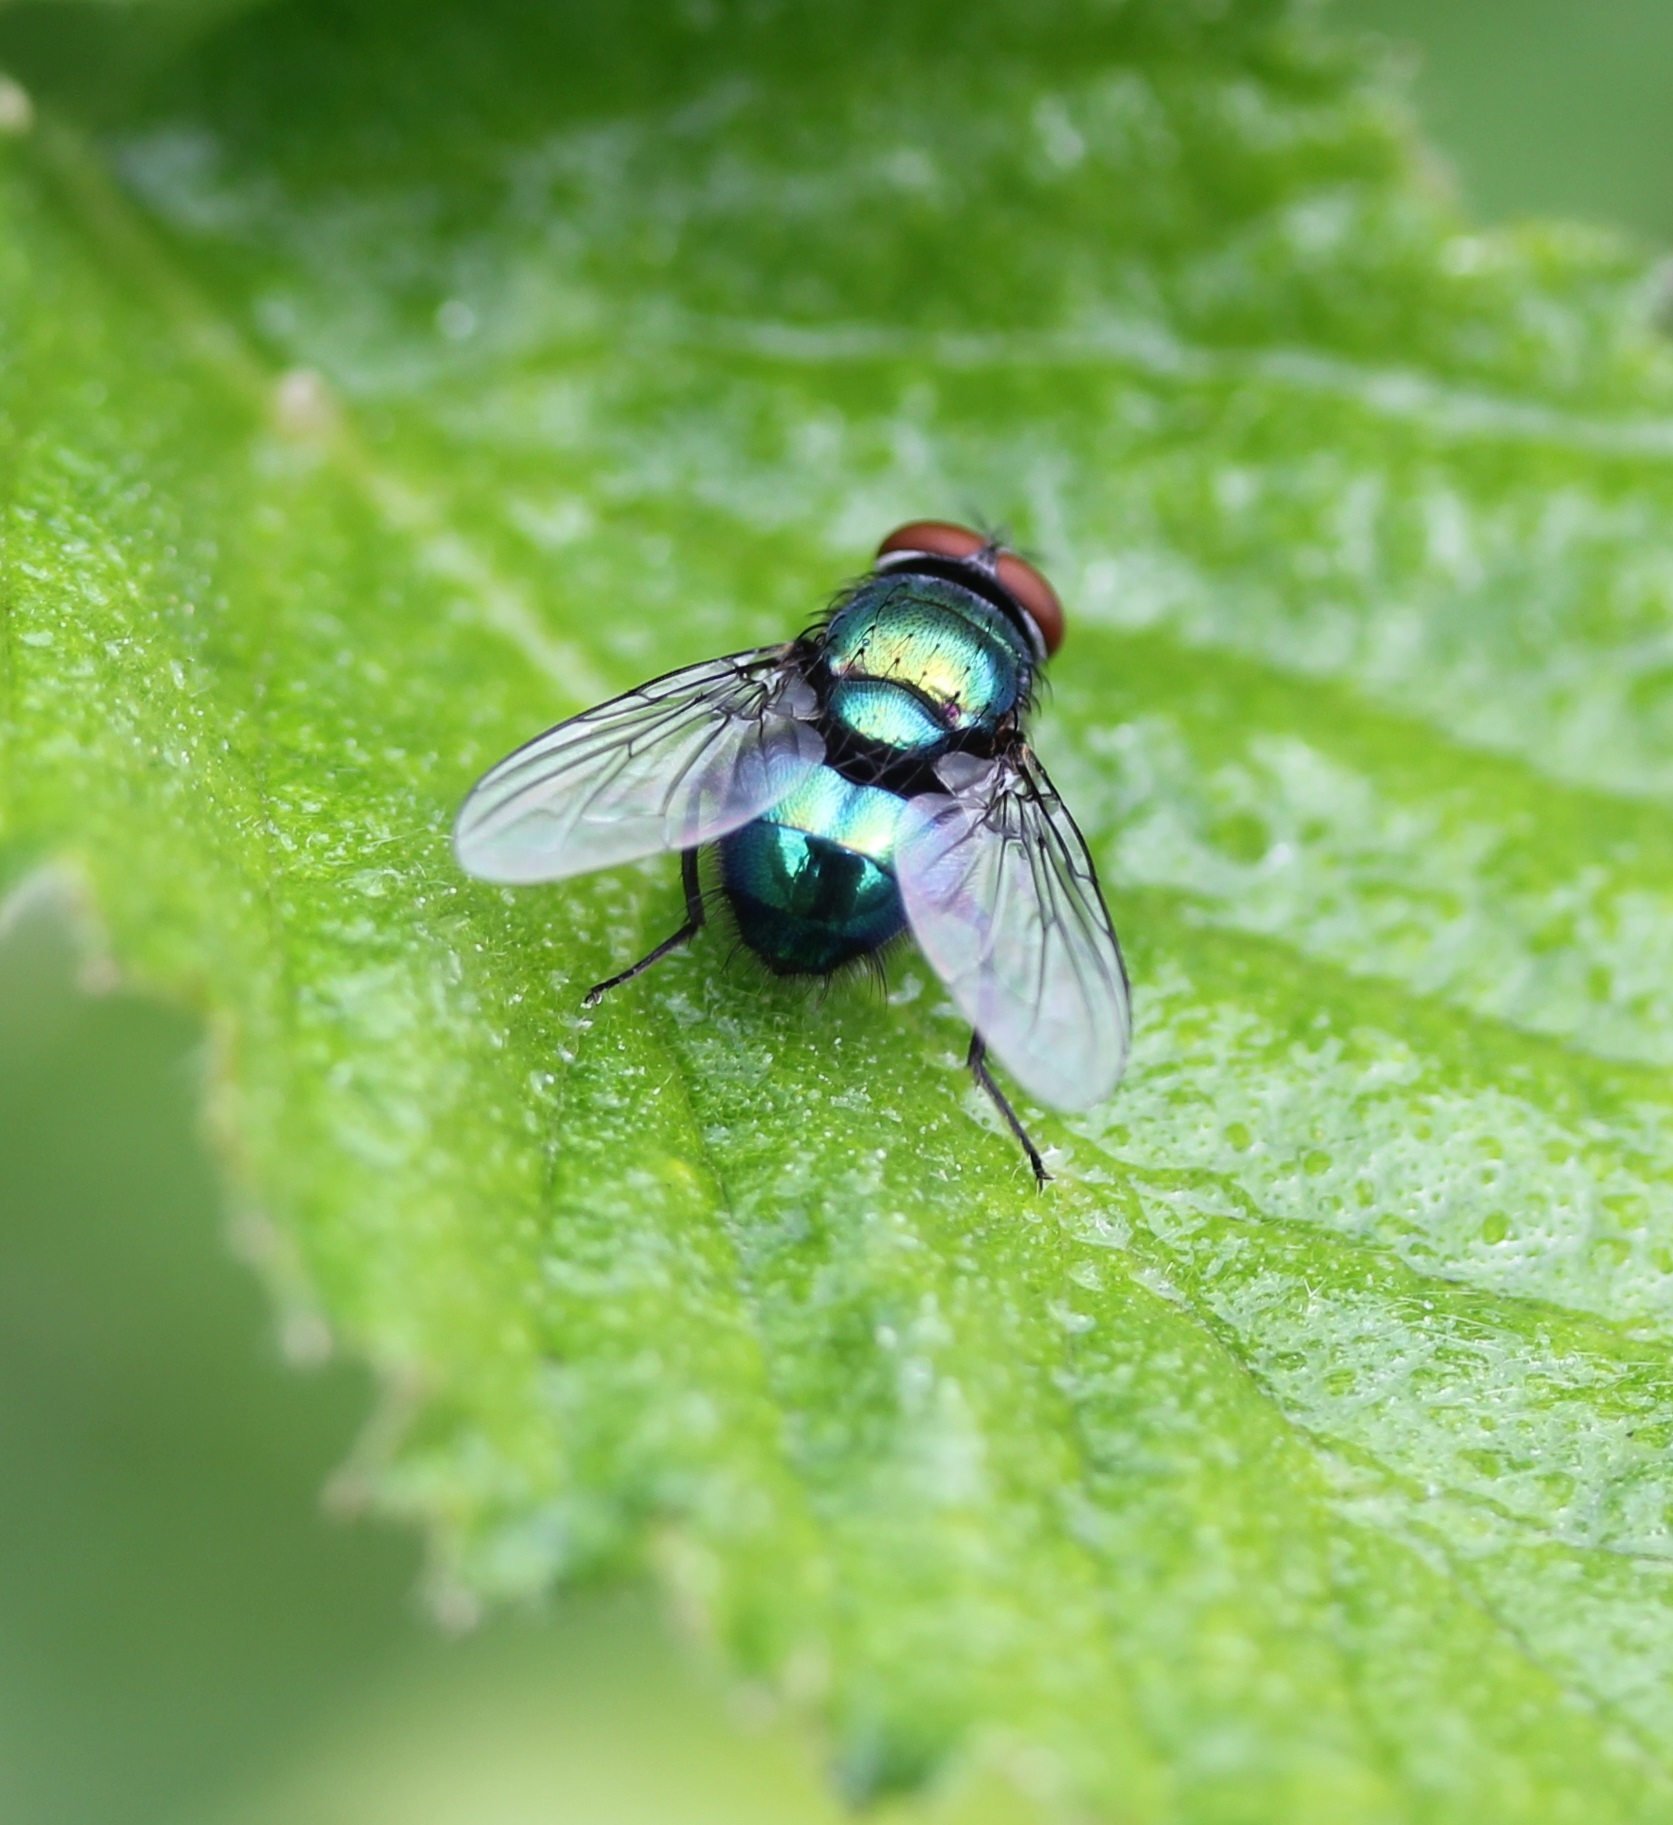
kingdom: Animalia
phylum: Arthropoda
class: Insecta
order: Diptera
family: Calliphoridae
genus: Lucilia
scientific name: Lucilia illustris
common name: Illustrious greenbottle
